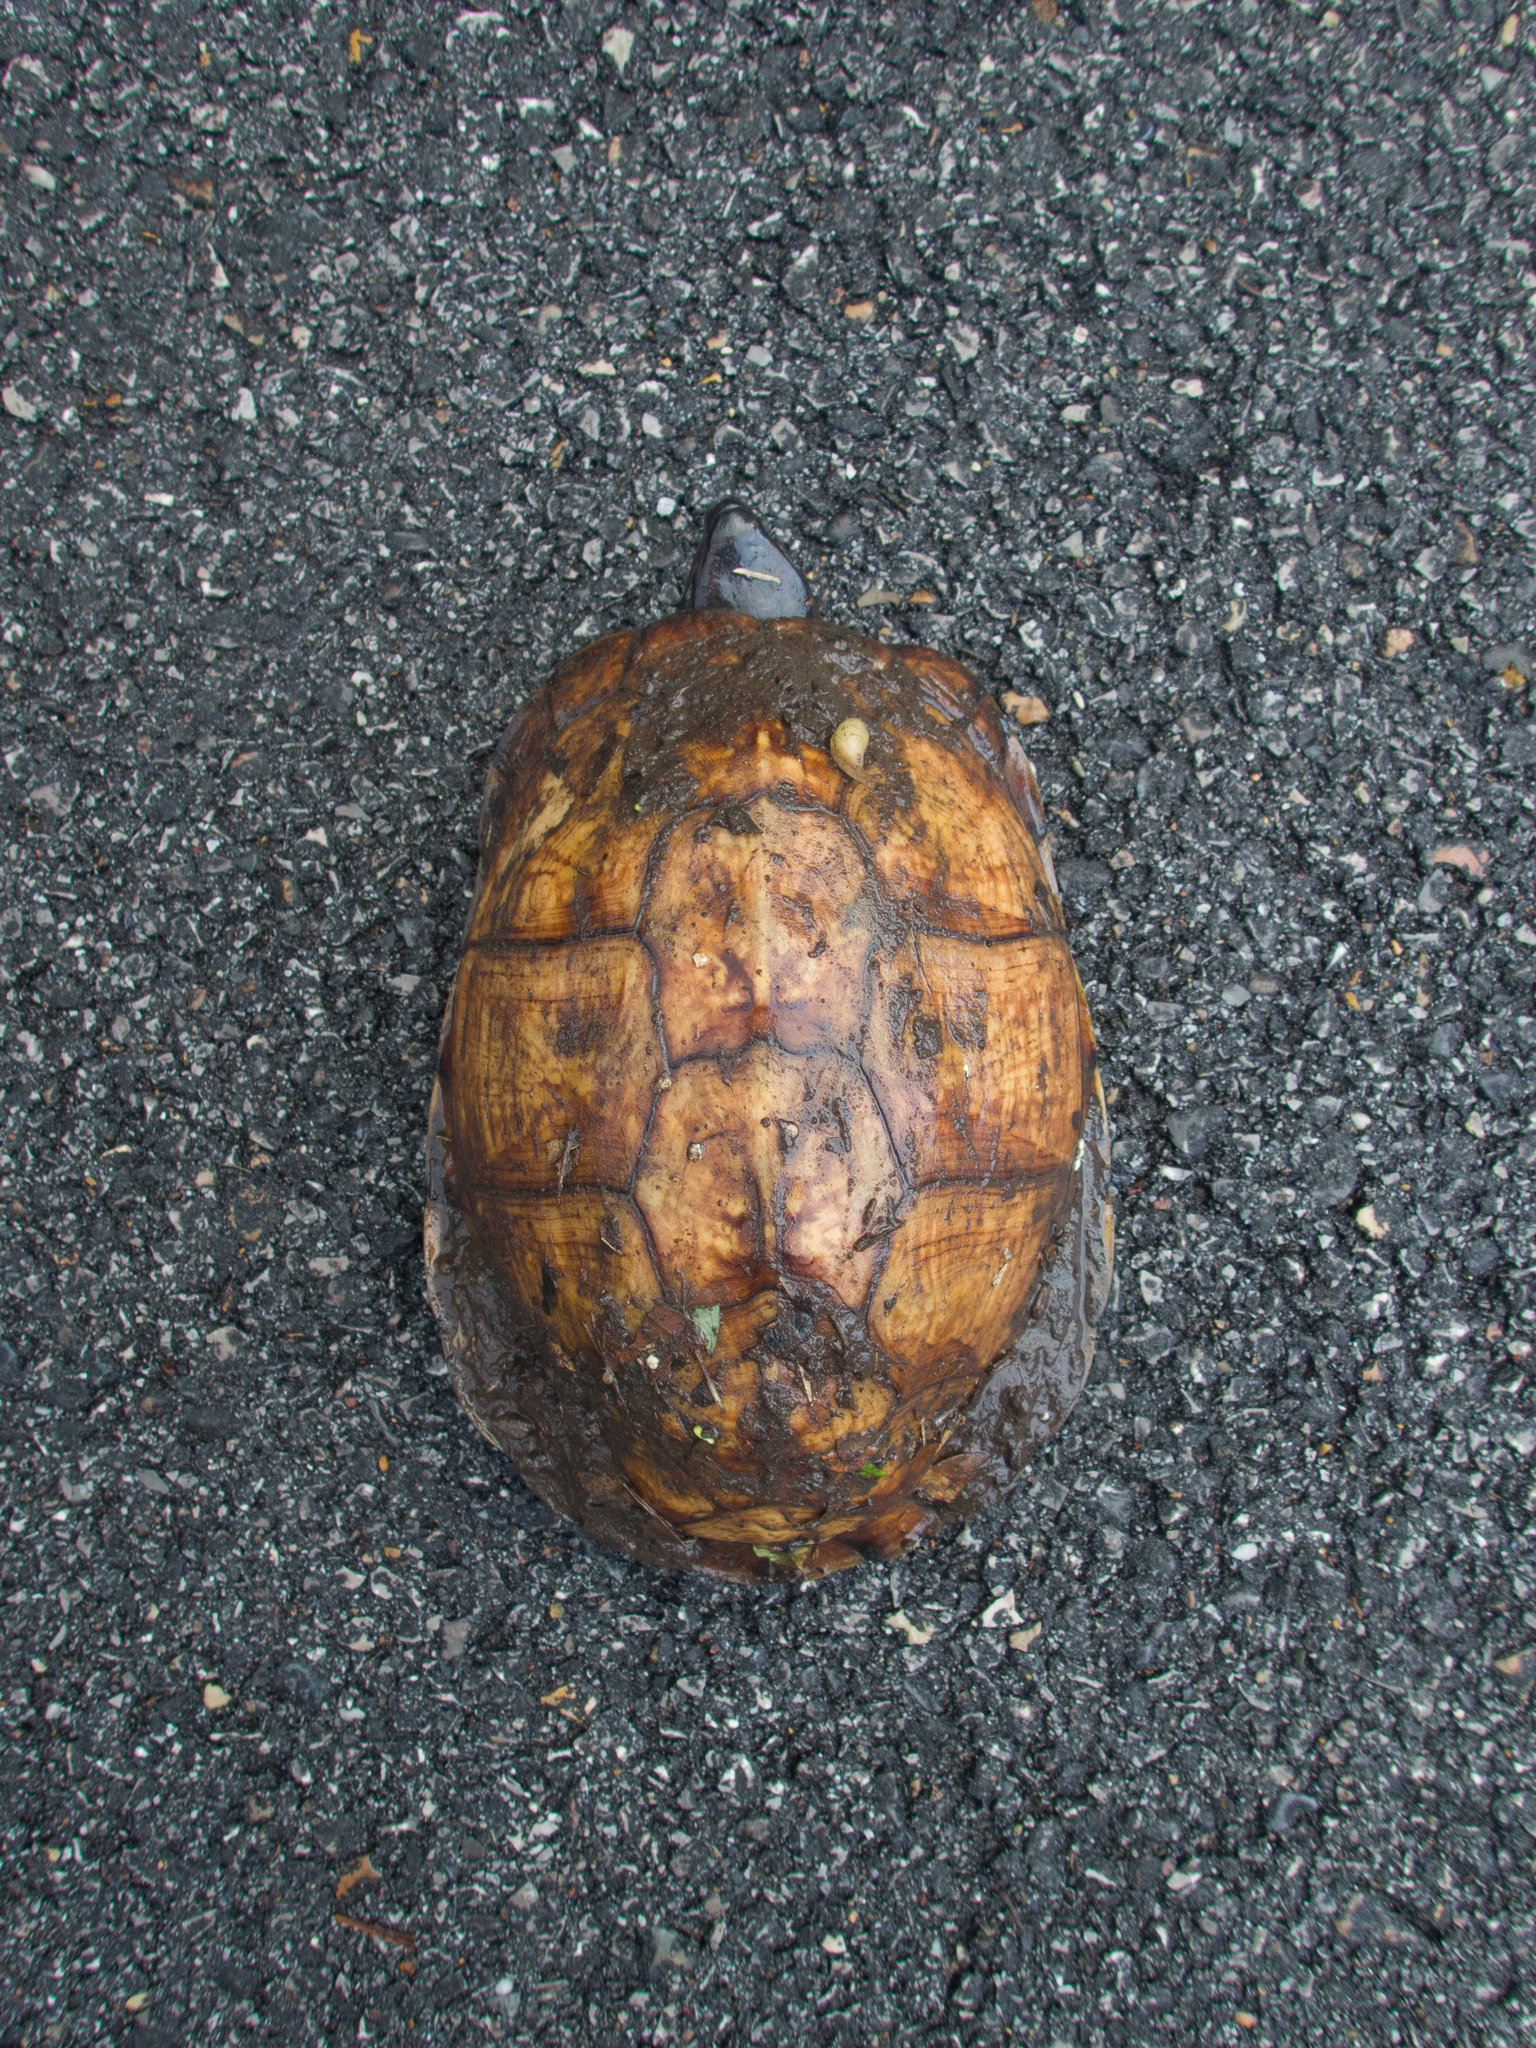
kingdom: Animalia
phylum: Chordata
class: Testudines
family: Emydidae
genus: Terrapene
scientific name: Terrapene carolina
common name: Common box turtle
